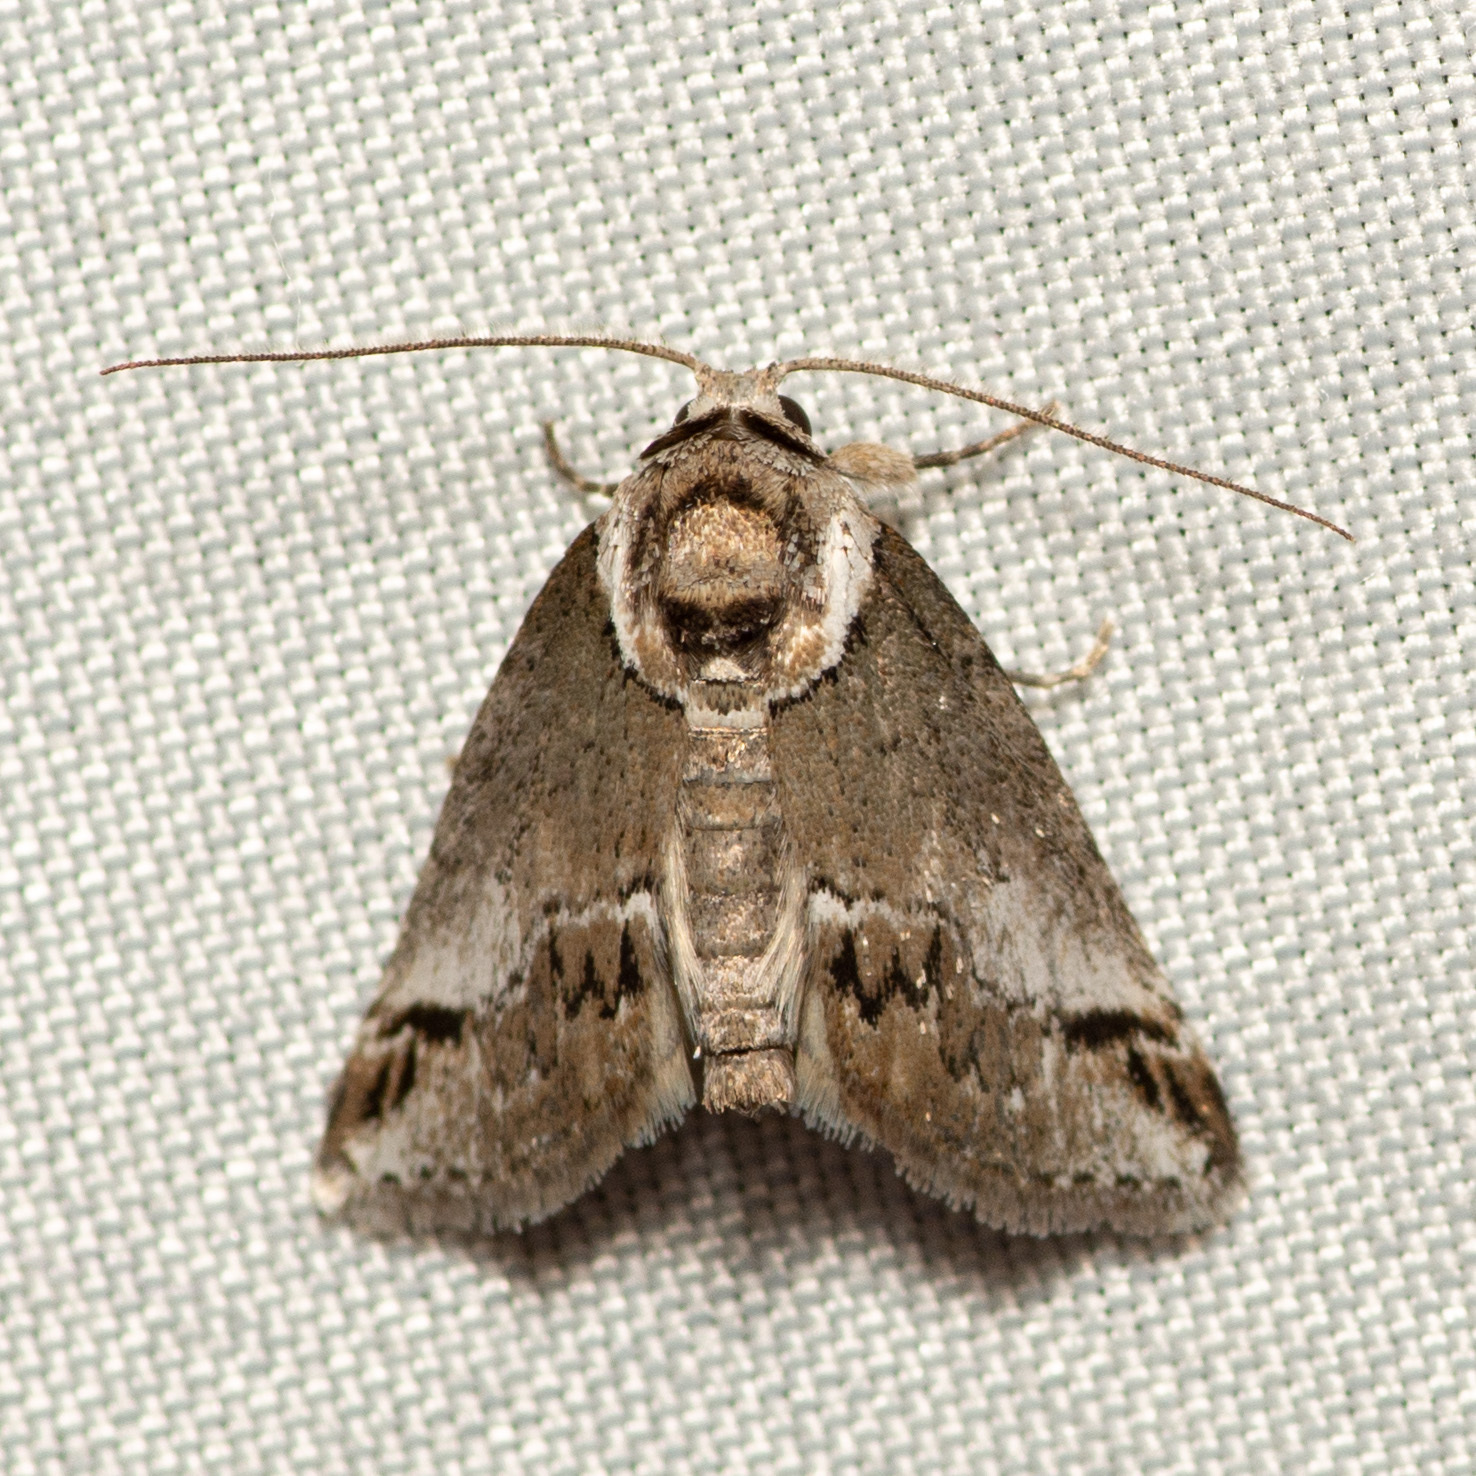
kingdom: Animalia
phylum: Arthropoda
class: Insecta
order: Lepidoptera
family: Nolidae
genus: Baileya
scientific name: Baileya australis
